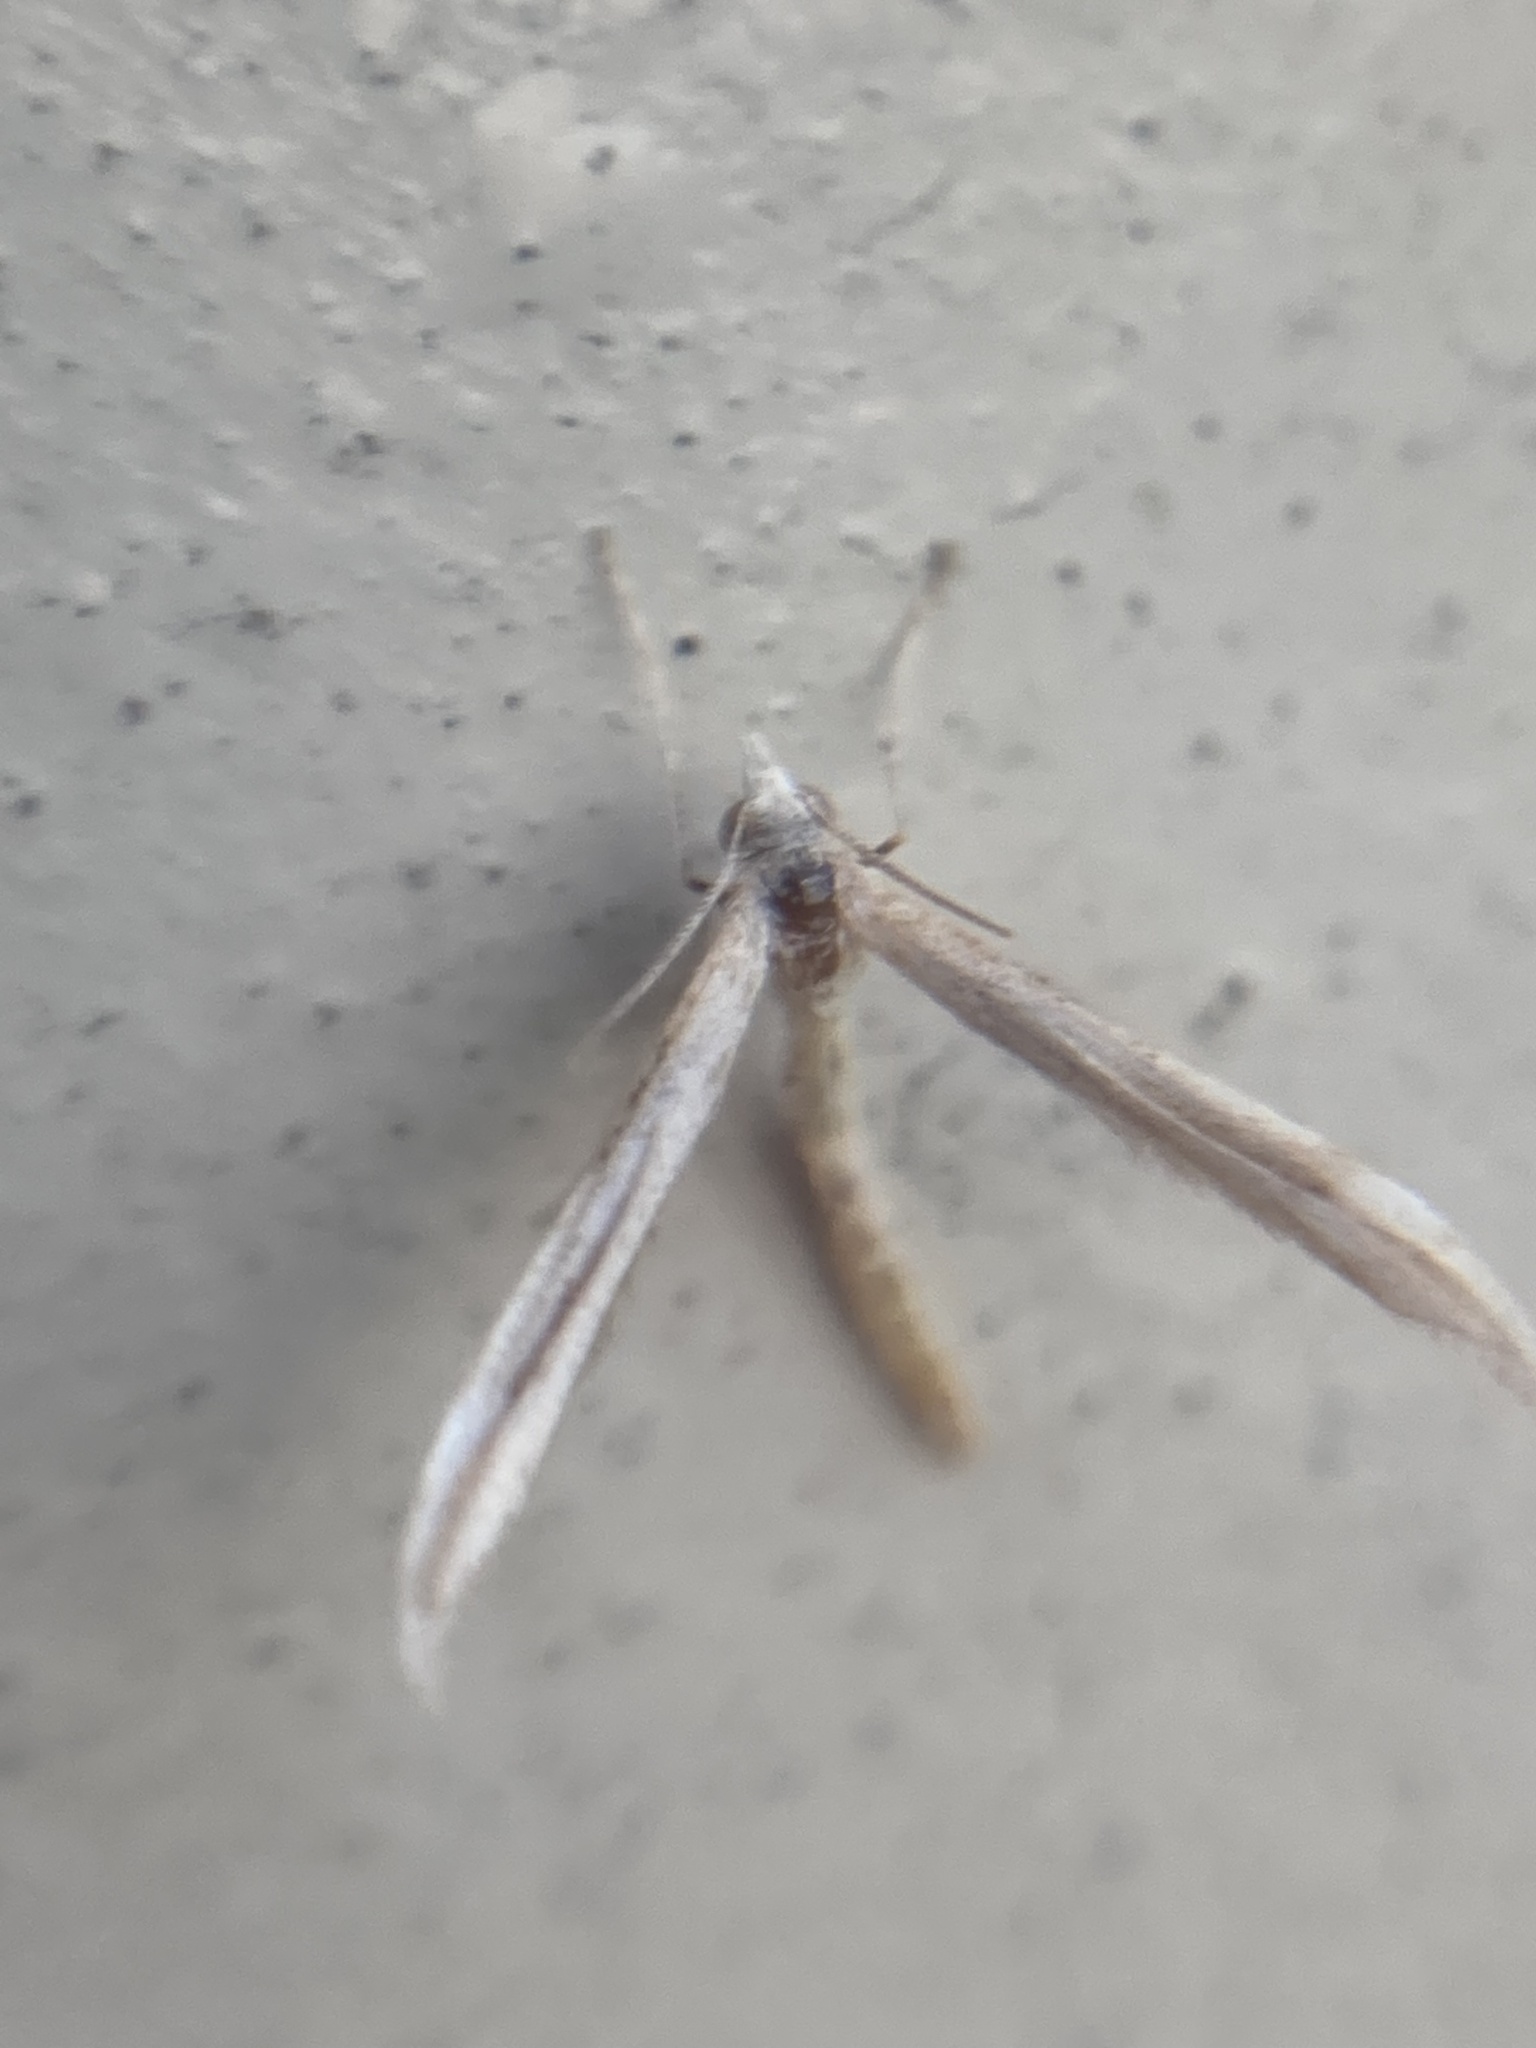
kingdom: Animalia
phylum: Arthropoda
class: Insecta
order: Lepidoptera
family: Pterophoridae
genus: Lioptilodes
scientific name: Lioptilodes albistriolatus
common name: Moth
